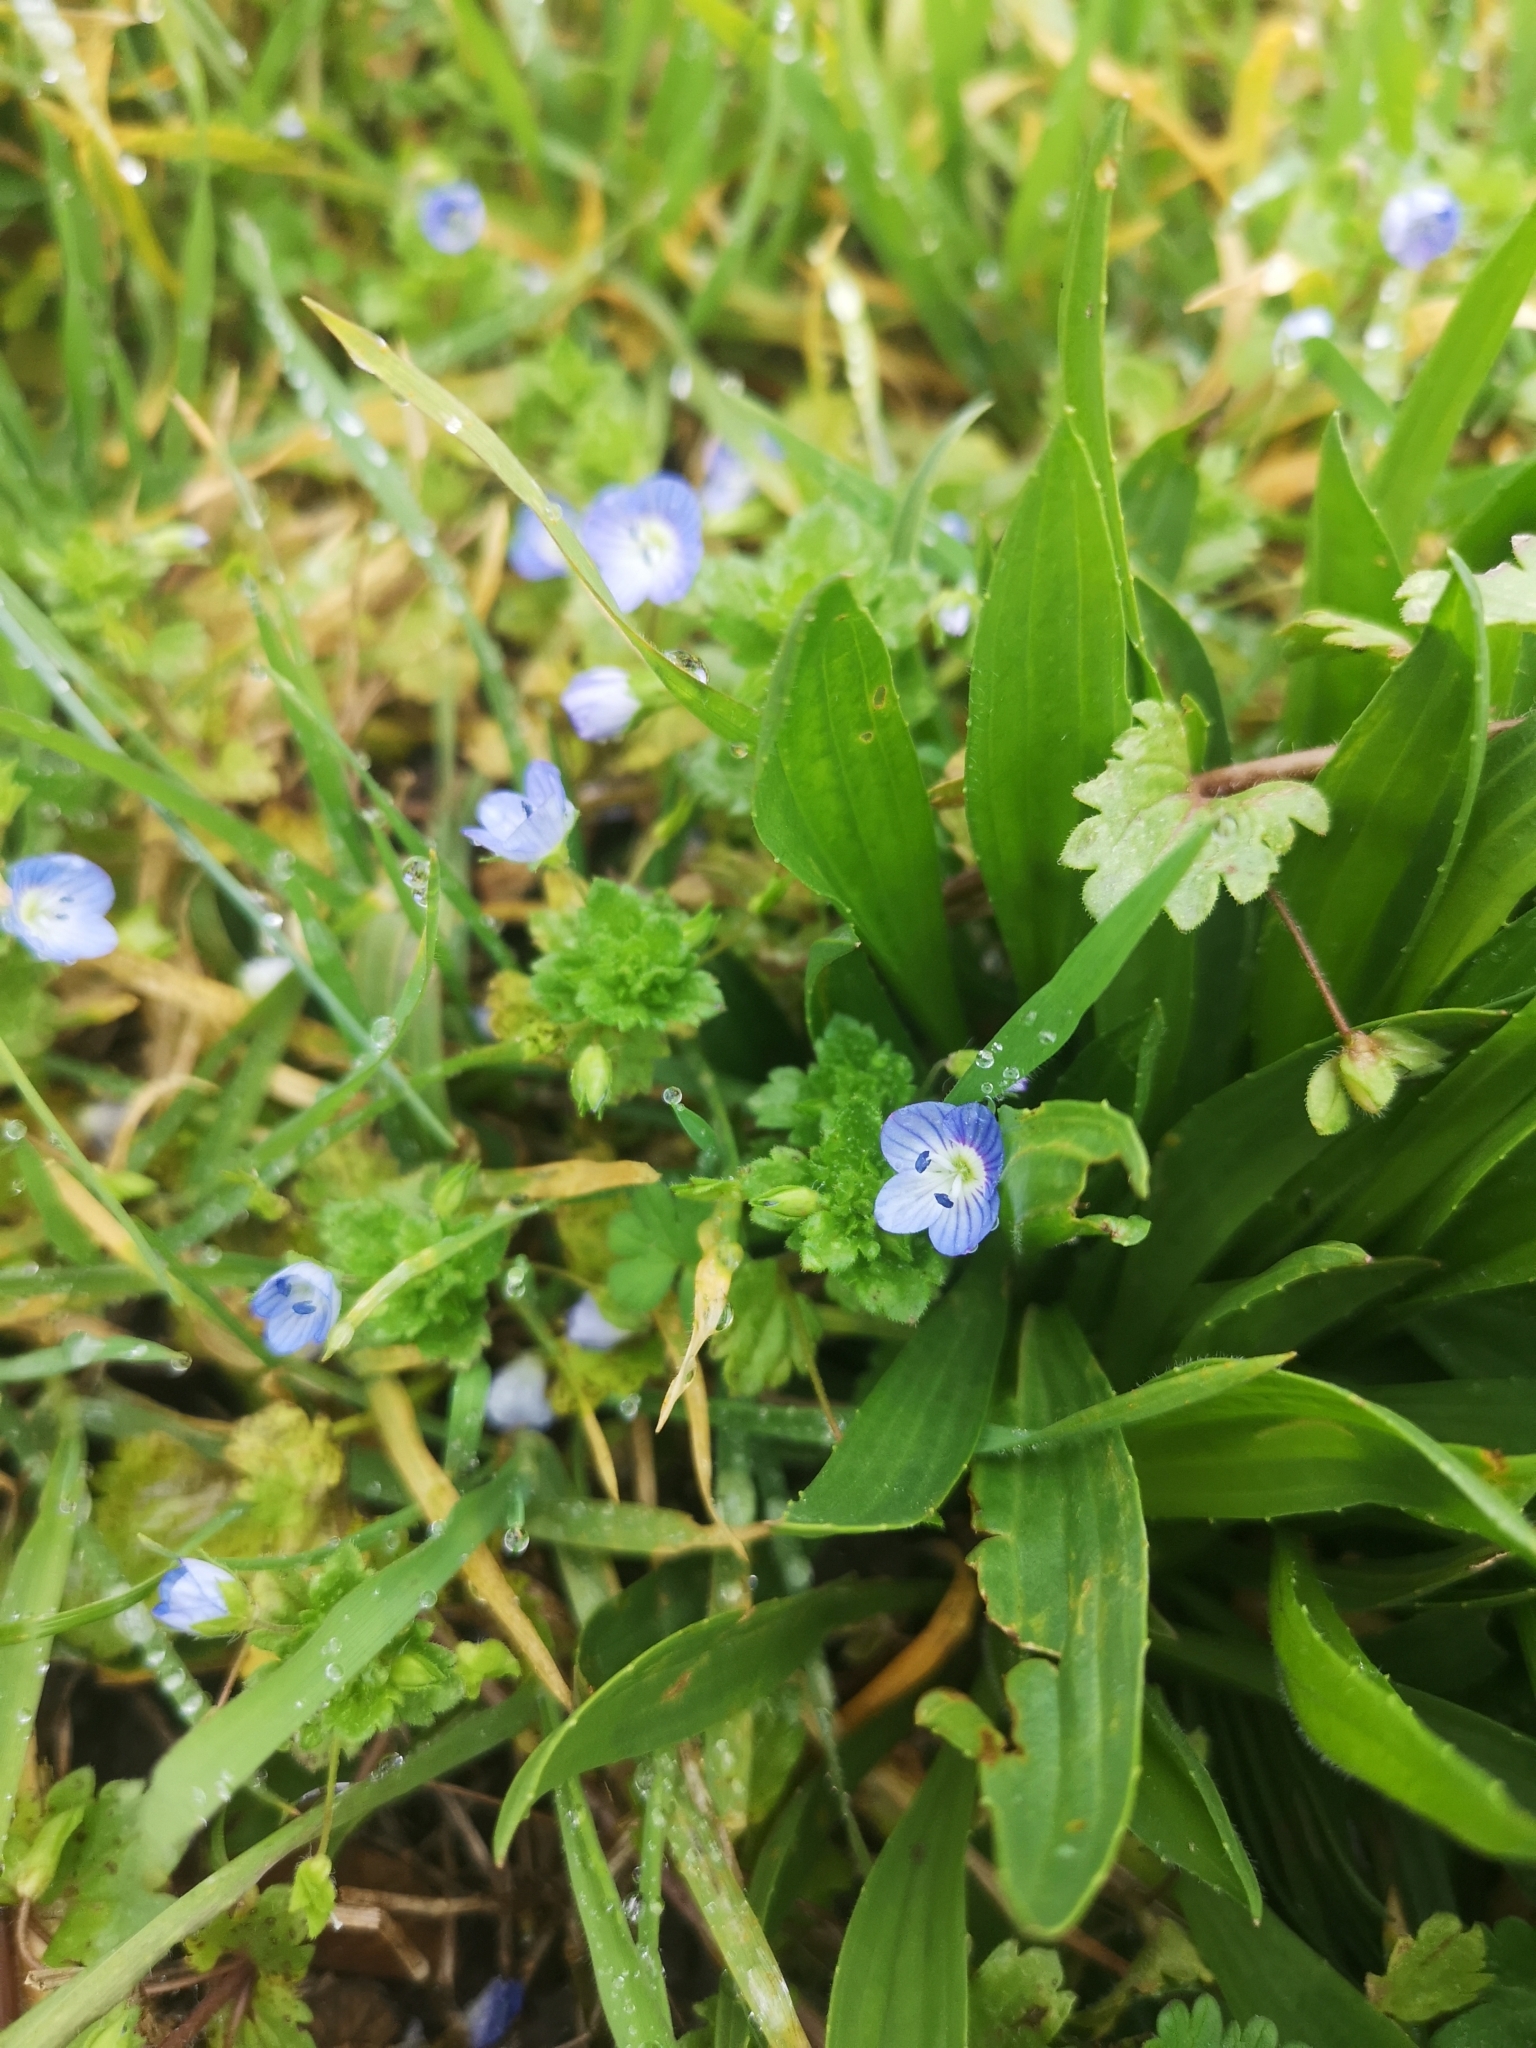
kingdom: Plantae
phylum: Tracheophyta
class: Magnoliopsida
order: Lamiales
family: Plantaginaceae
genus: Veronica
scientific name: Veronica persica
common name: Common field-speedwell
